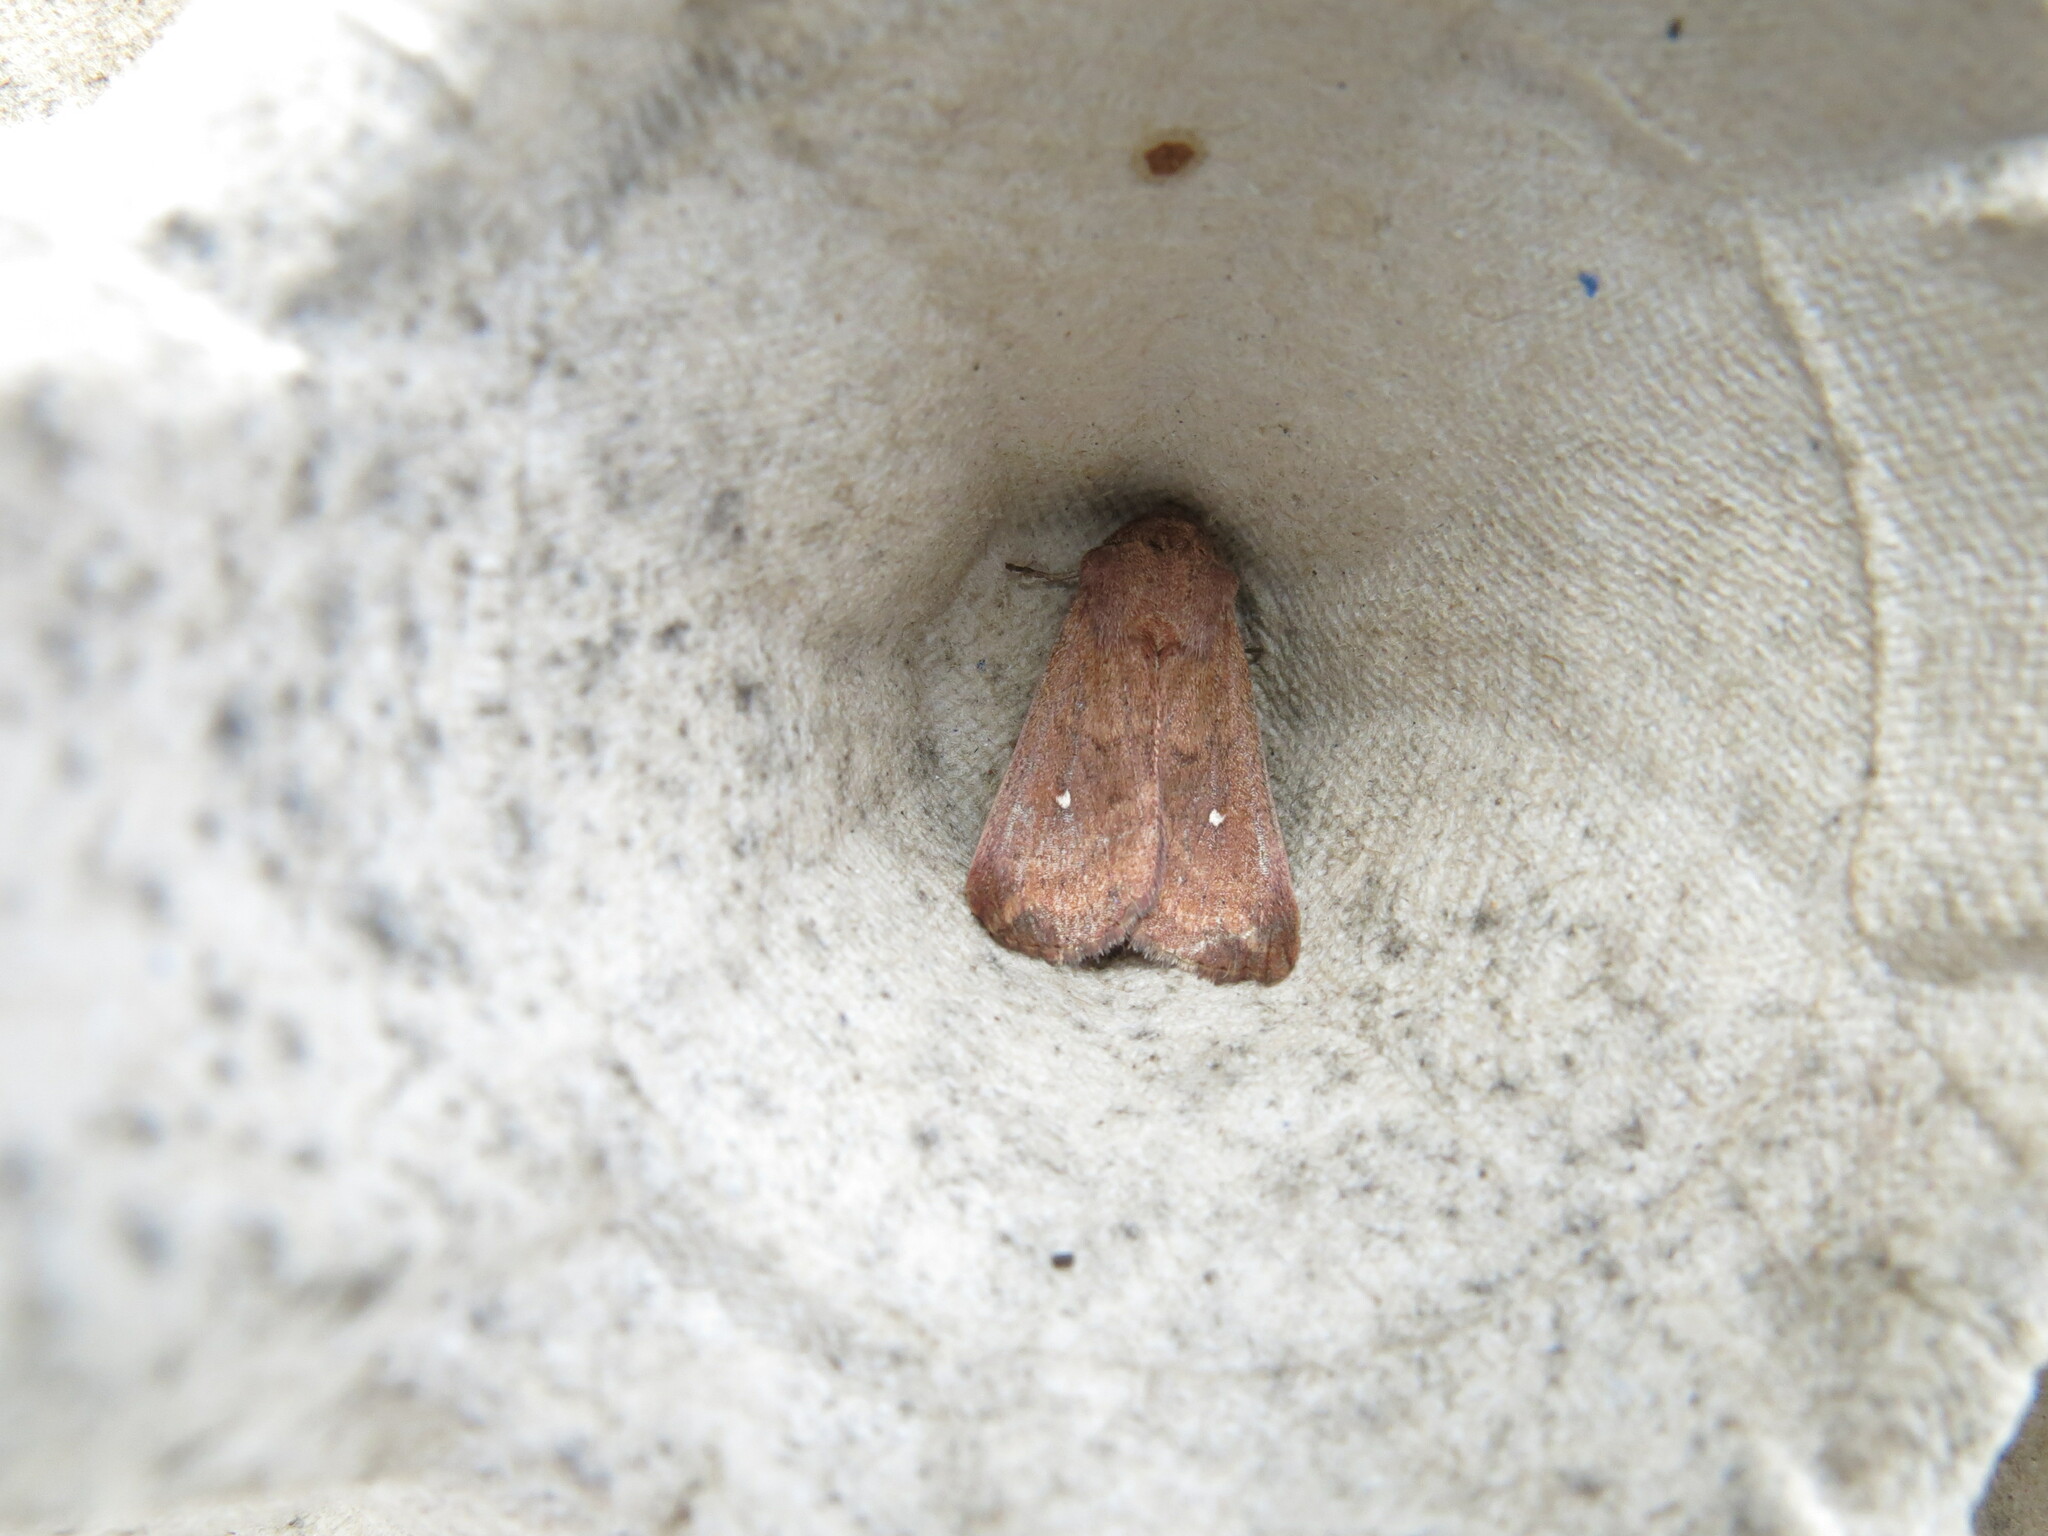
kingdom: Animalia
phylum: Arthropoda
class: Insecta
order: Lepidoptera
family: Noctuidae
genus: Mythimna
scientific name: Mythimna albipuncta
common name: White-point
